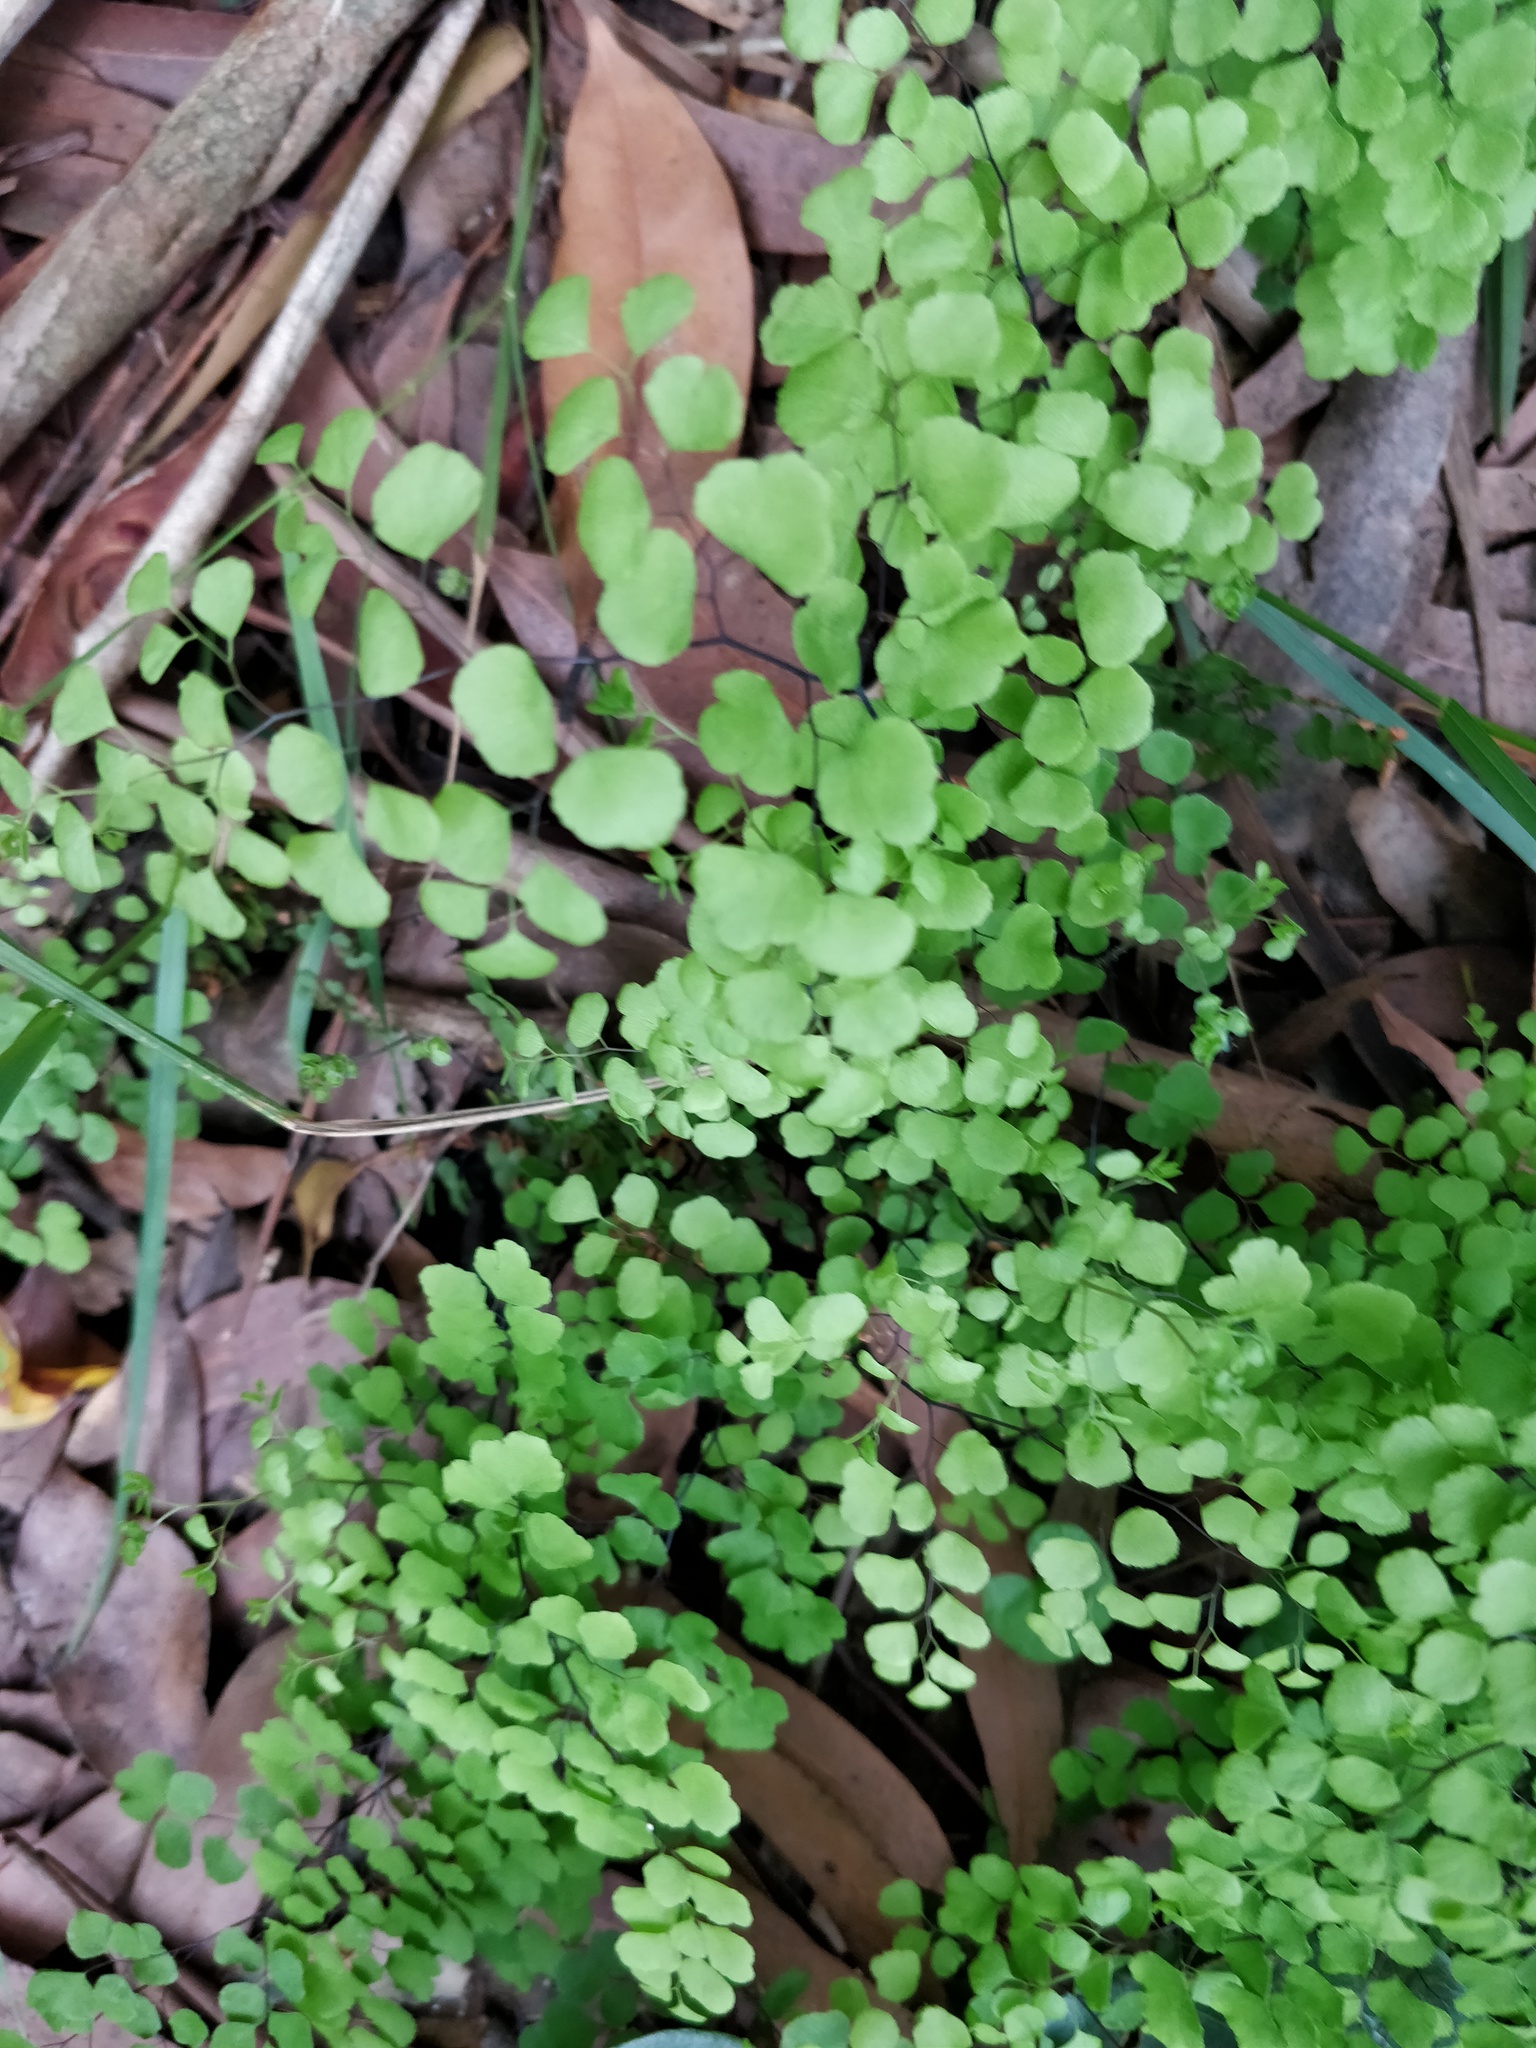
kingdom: Plantae
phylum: Tracheophyta
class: Polypodiopsida
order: Polypodiales
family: Pteridaceae
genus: Adiantum
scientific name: Adiantum aethiopicum
